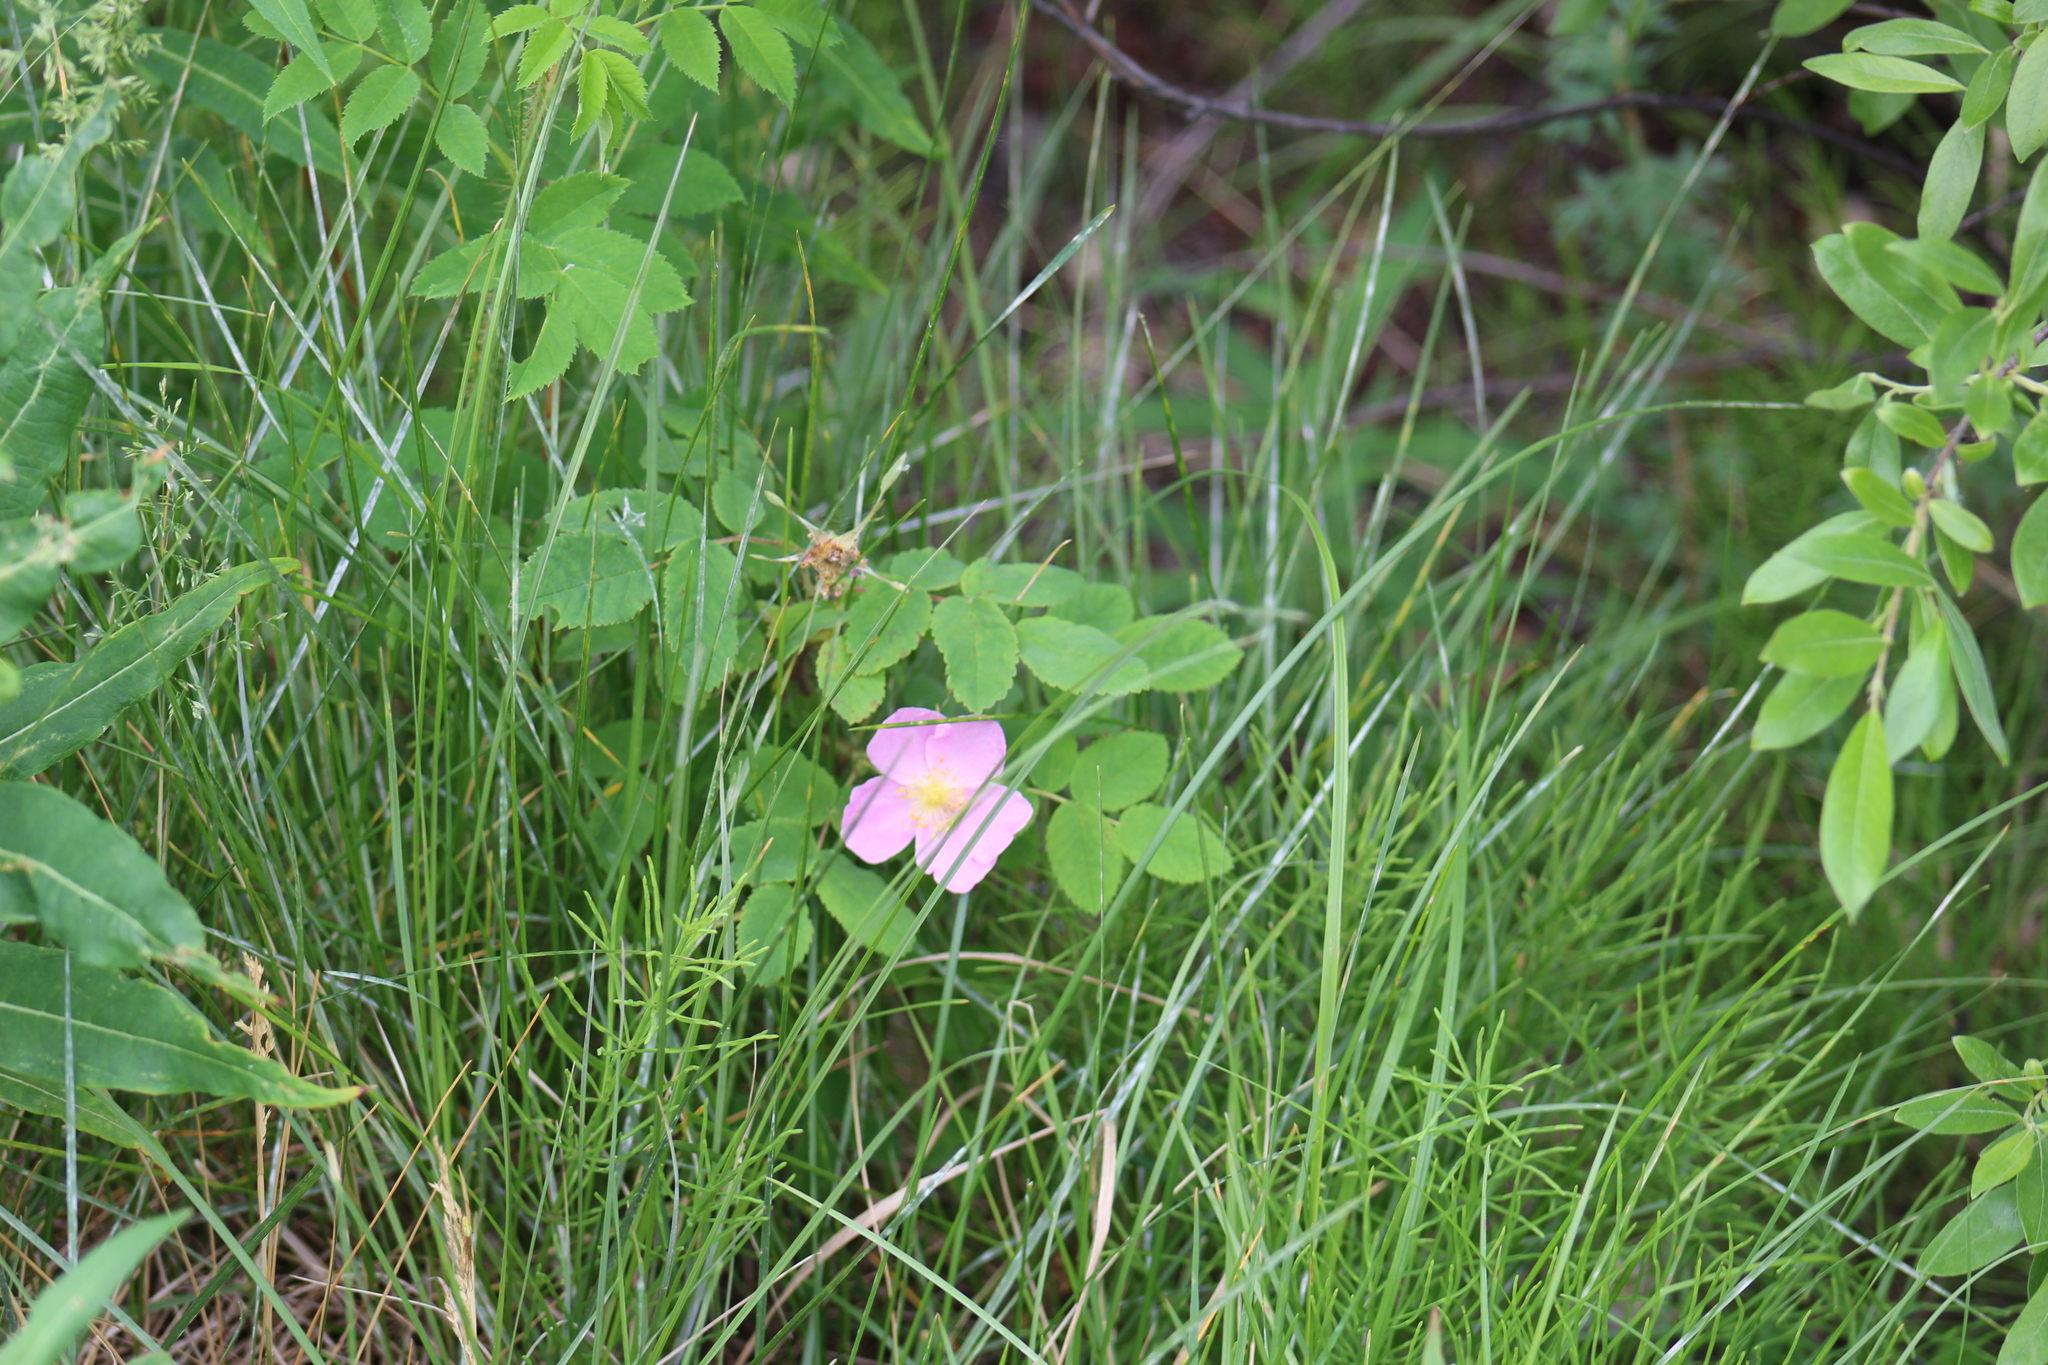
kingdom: Plantae
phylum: Tracheophyta
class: Magnoliopsida
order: Rosales
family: Rosaceae
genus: Rosa
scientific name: Rosa acicularis
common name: Prickly rose
